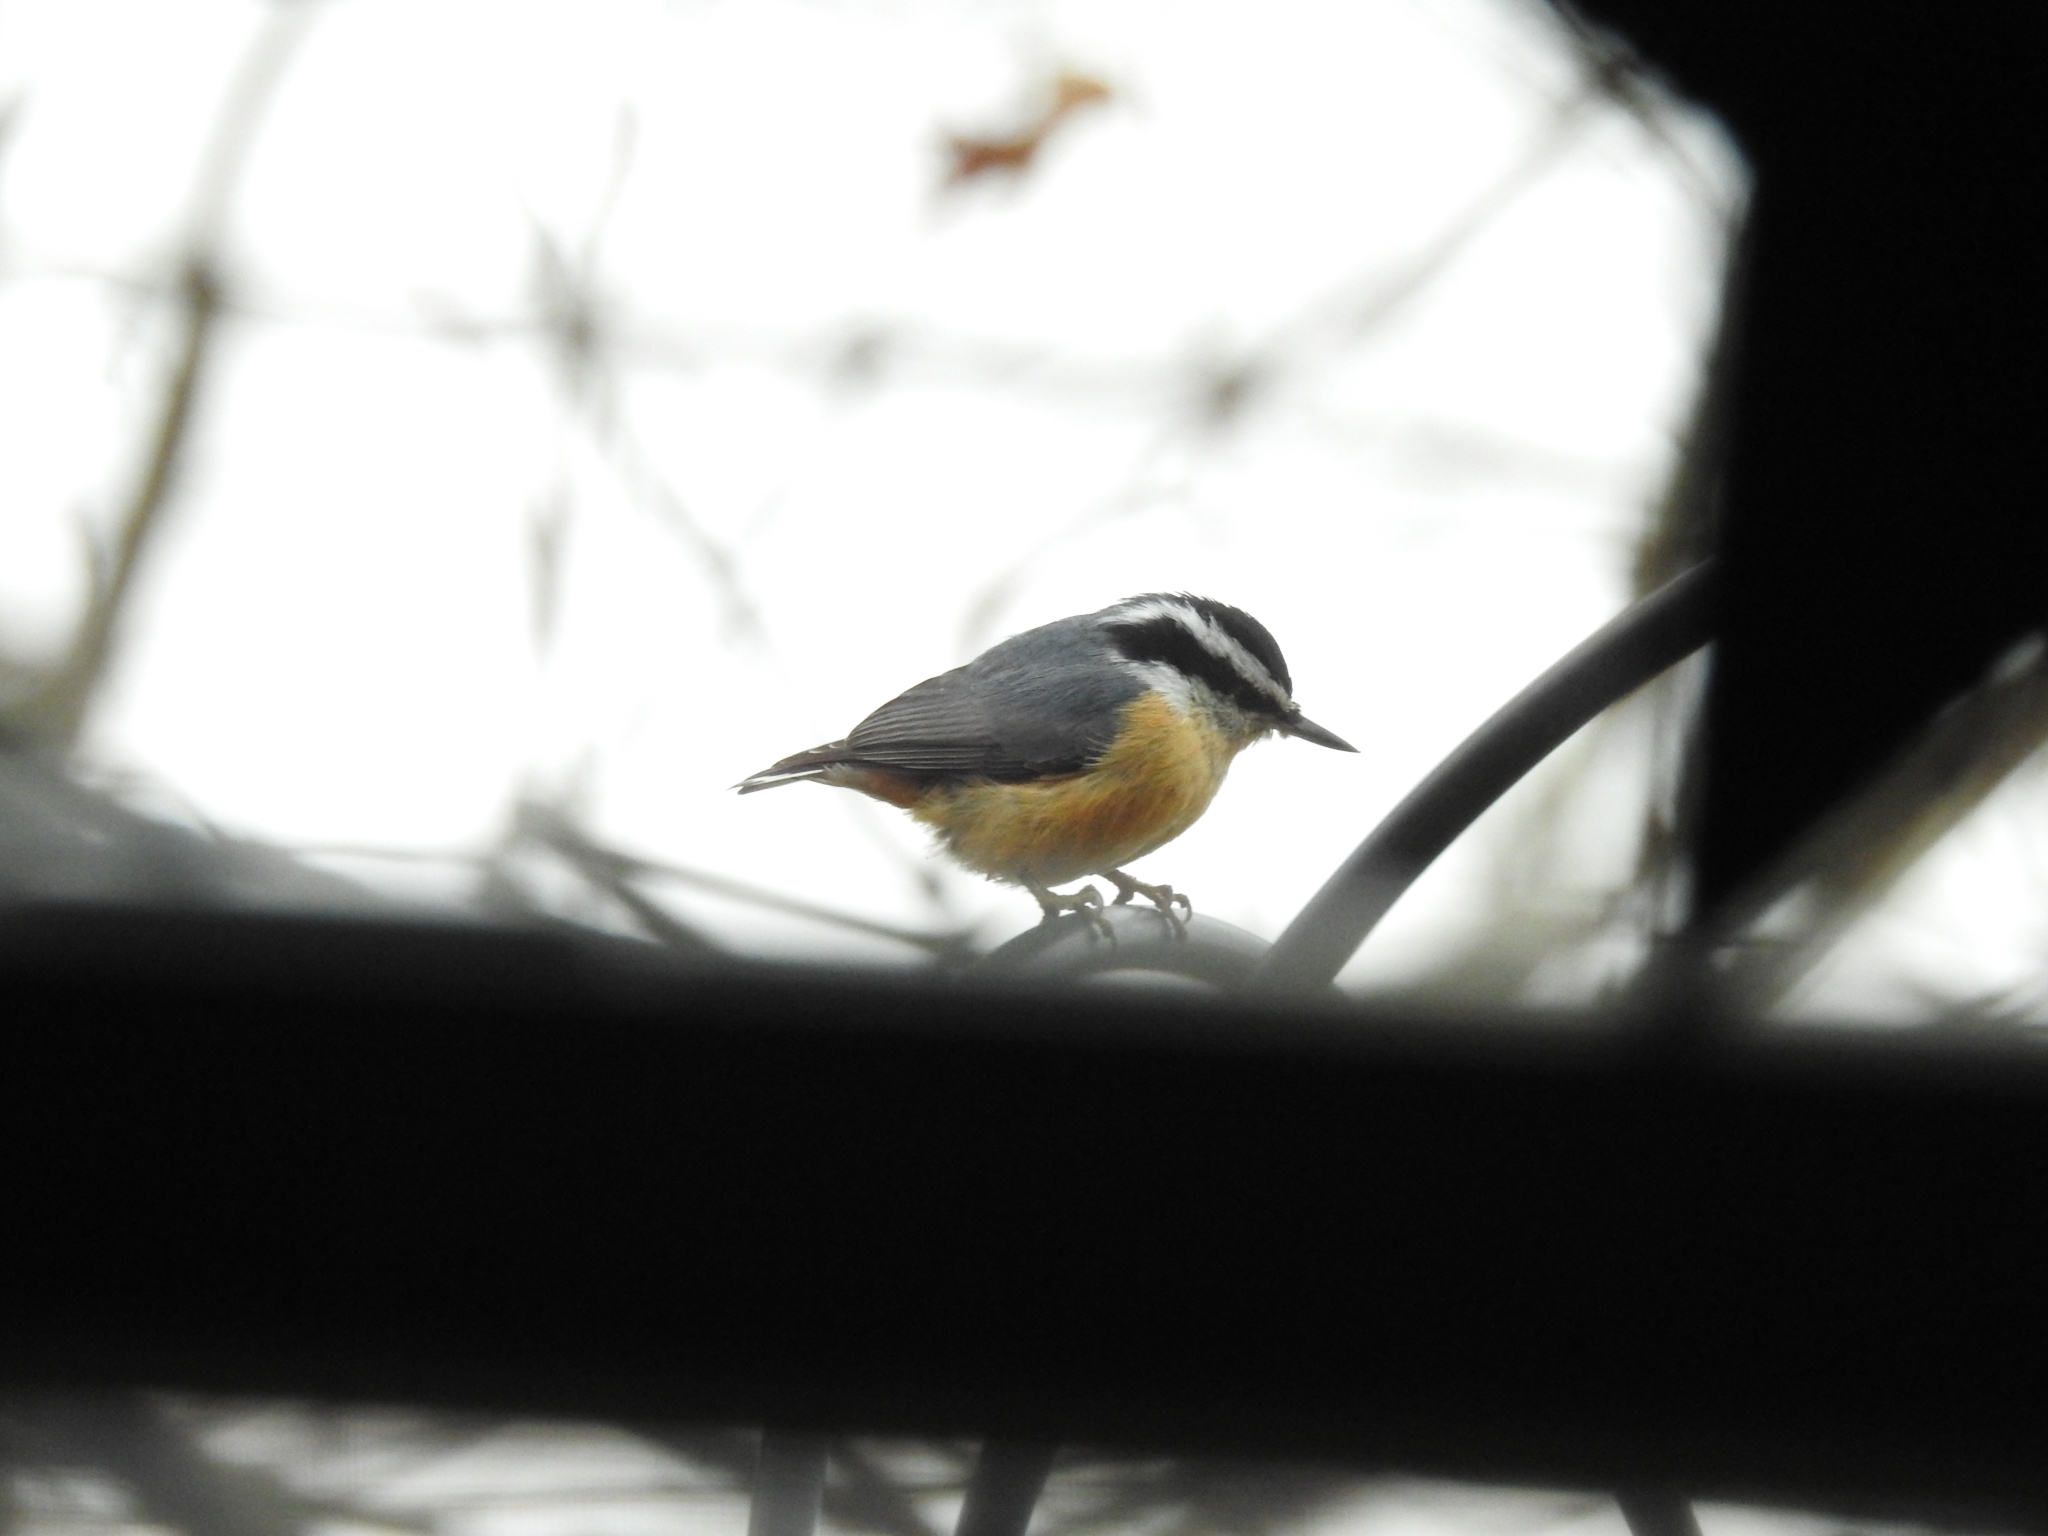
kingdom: Animalia
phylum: Chordata
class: Aves
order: Passeriformes
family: Sittidae
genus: Sitta
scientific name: Sitta canadensis
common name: Red-breasted nuthatch
